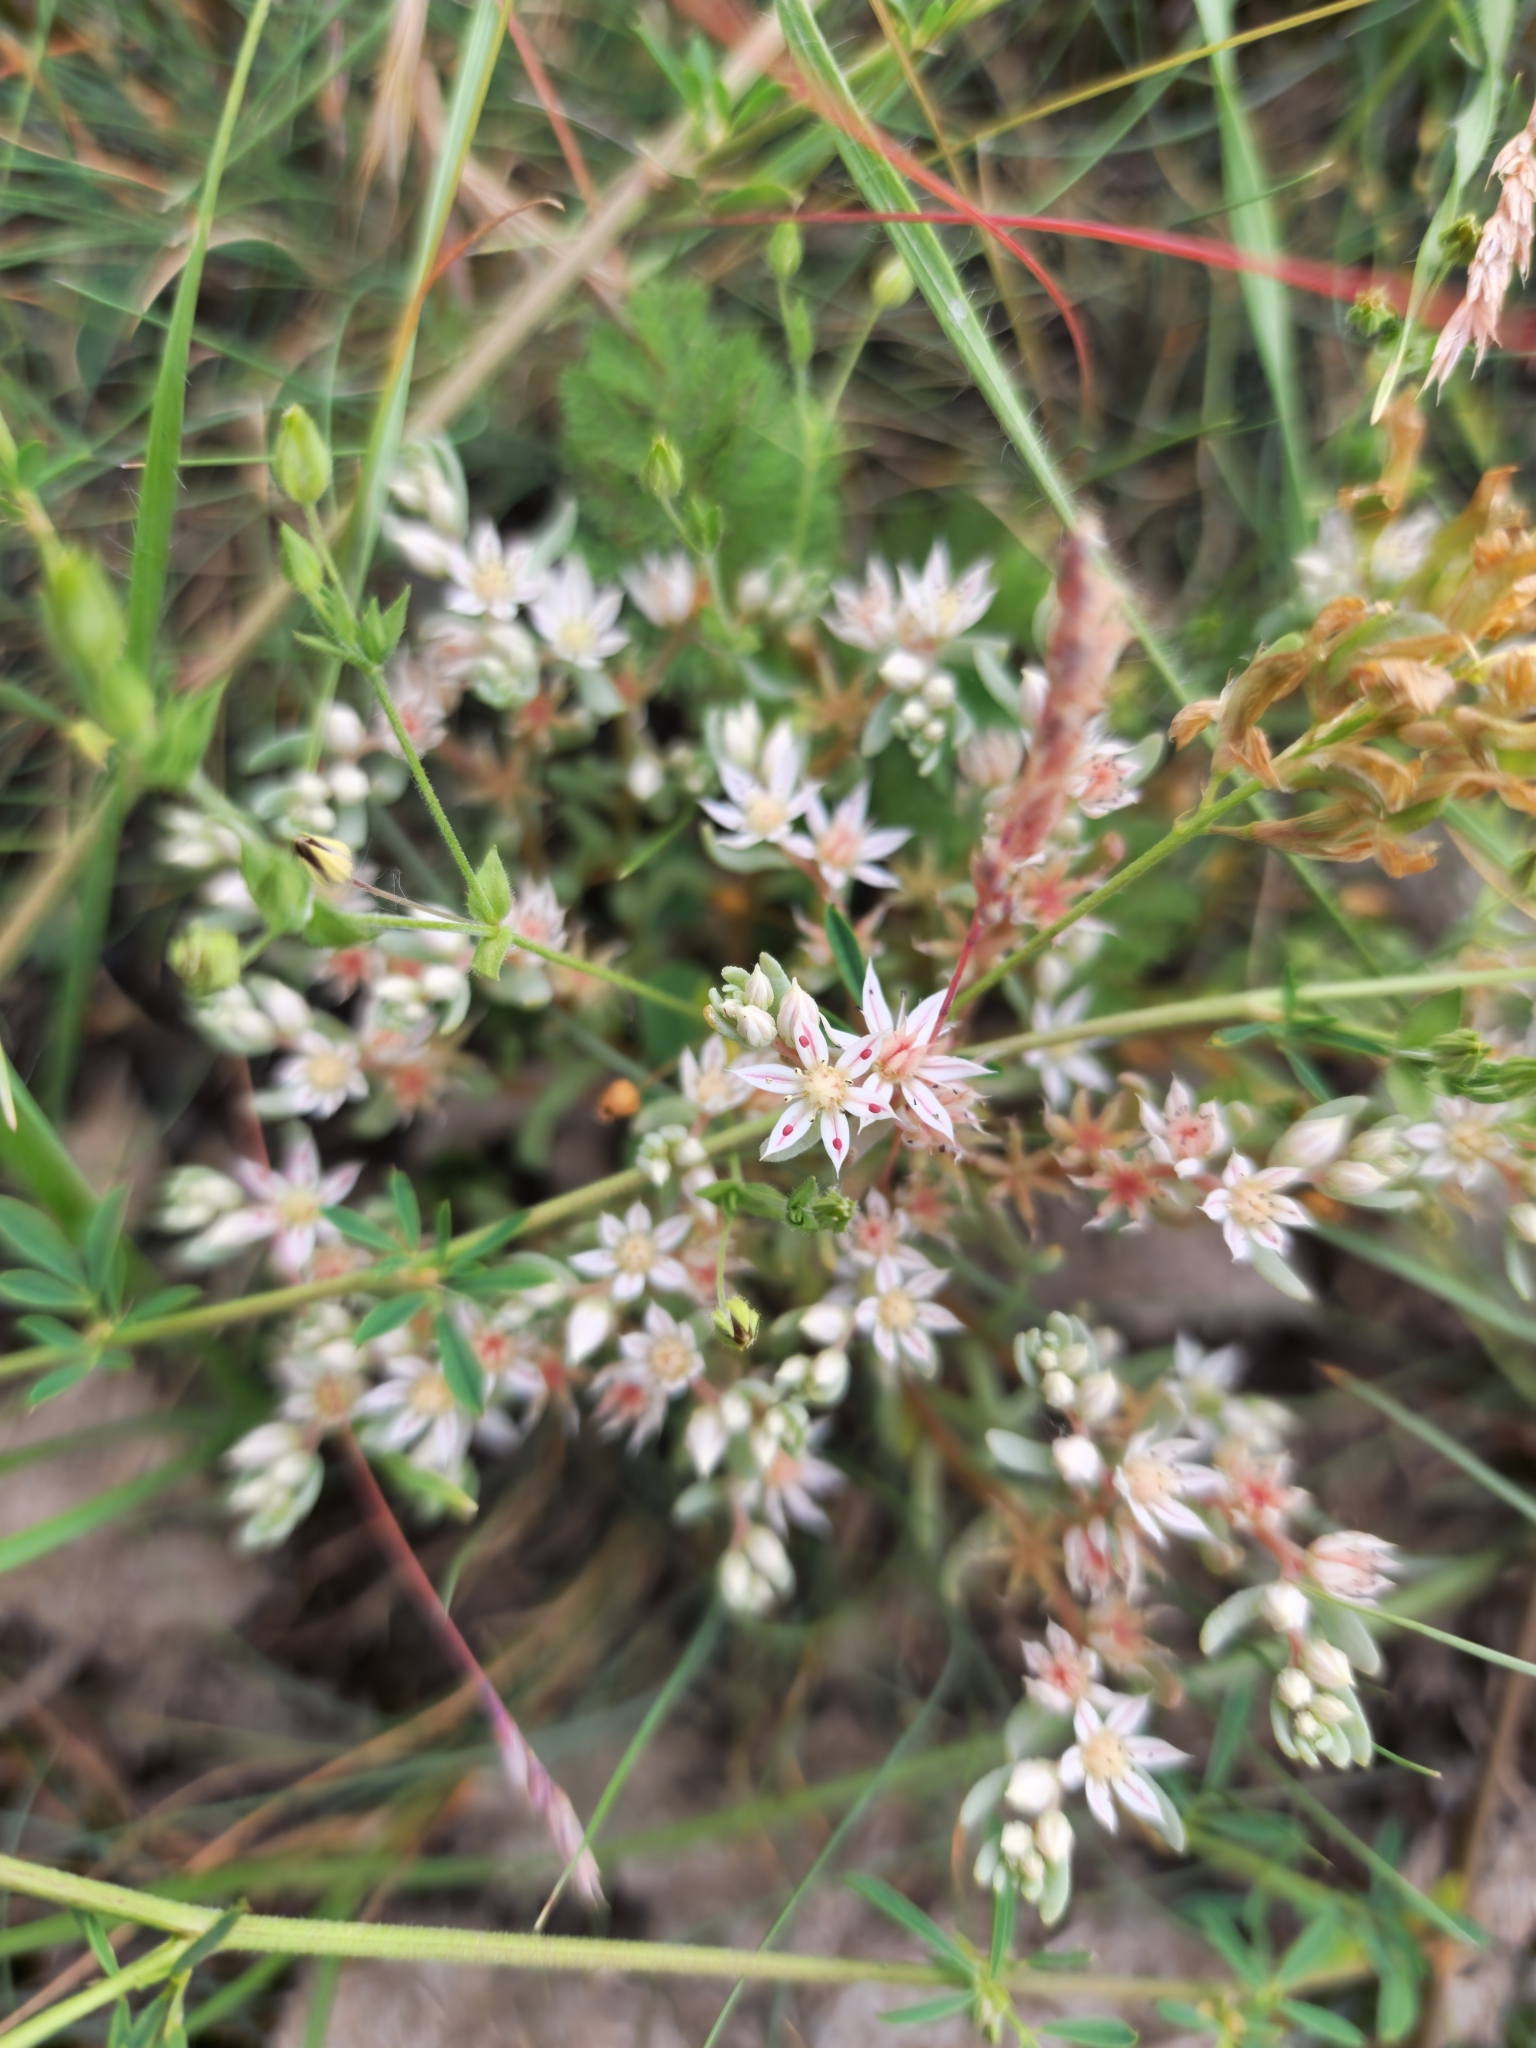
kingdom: Plantae
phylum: Tracheophyta
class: Magnoliopsida
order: Saxifragales
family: Crassulaceae
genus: Sedum
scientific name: Sedum hispanicum
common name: Spanish stonecrop
